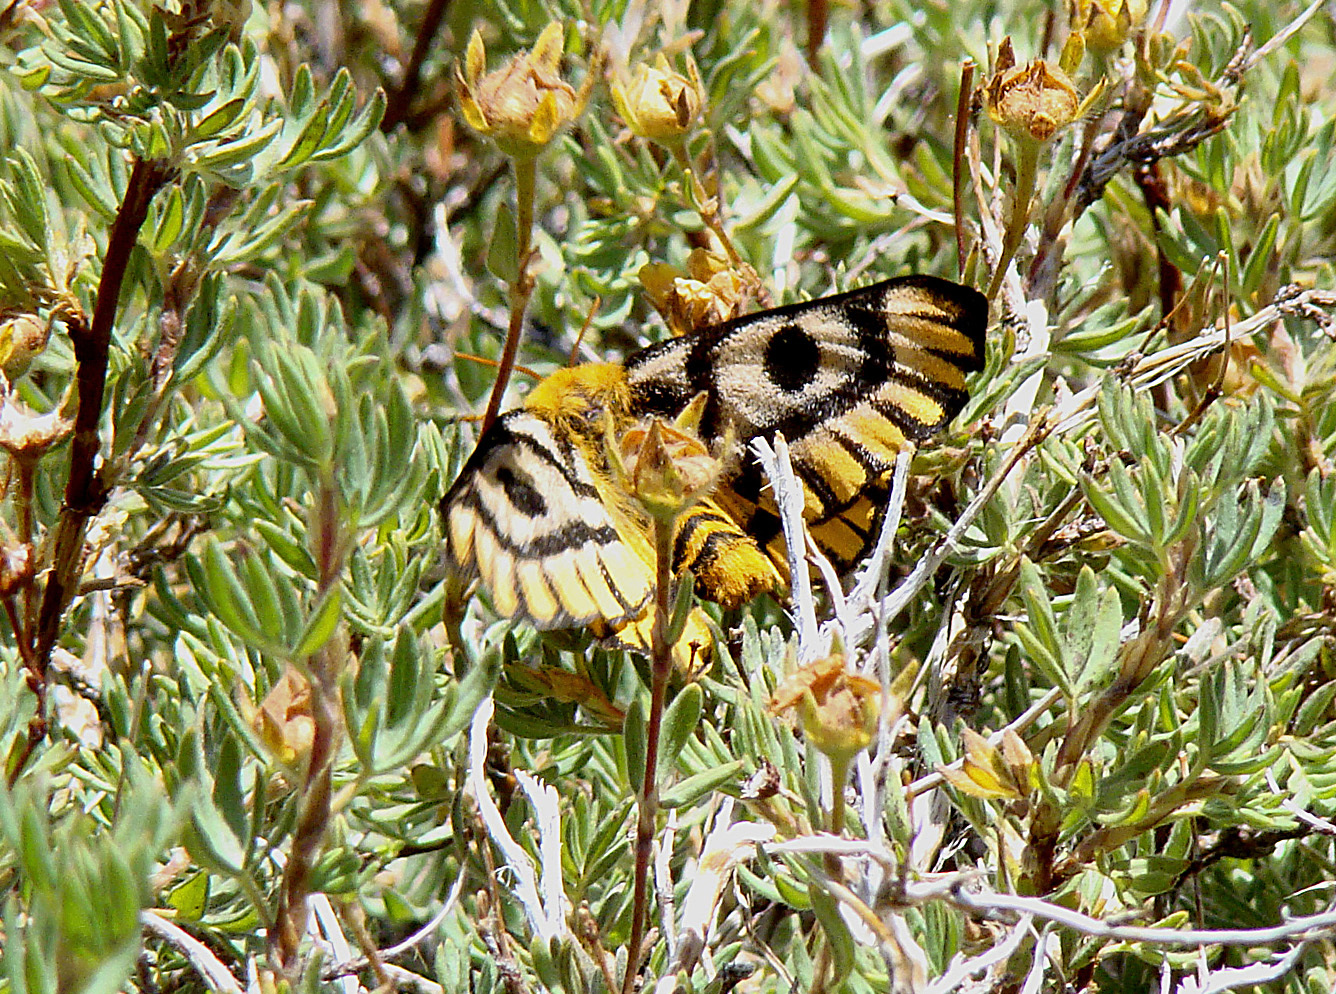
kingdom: Animalia
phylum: Arthropoda
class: Insecta
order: Lepidoptera
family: Saturniidae
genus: Hemileuca
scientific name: Hemileuca nutalli
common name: Nuttall's sheepmoth
